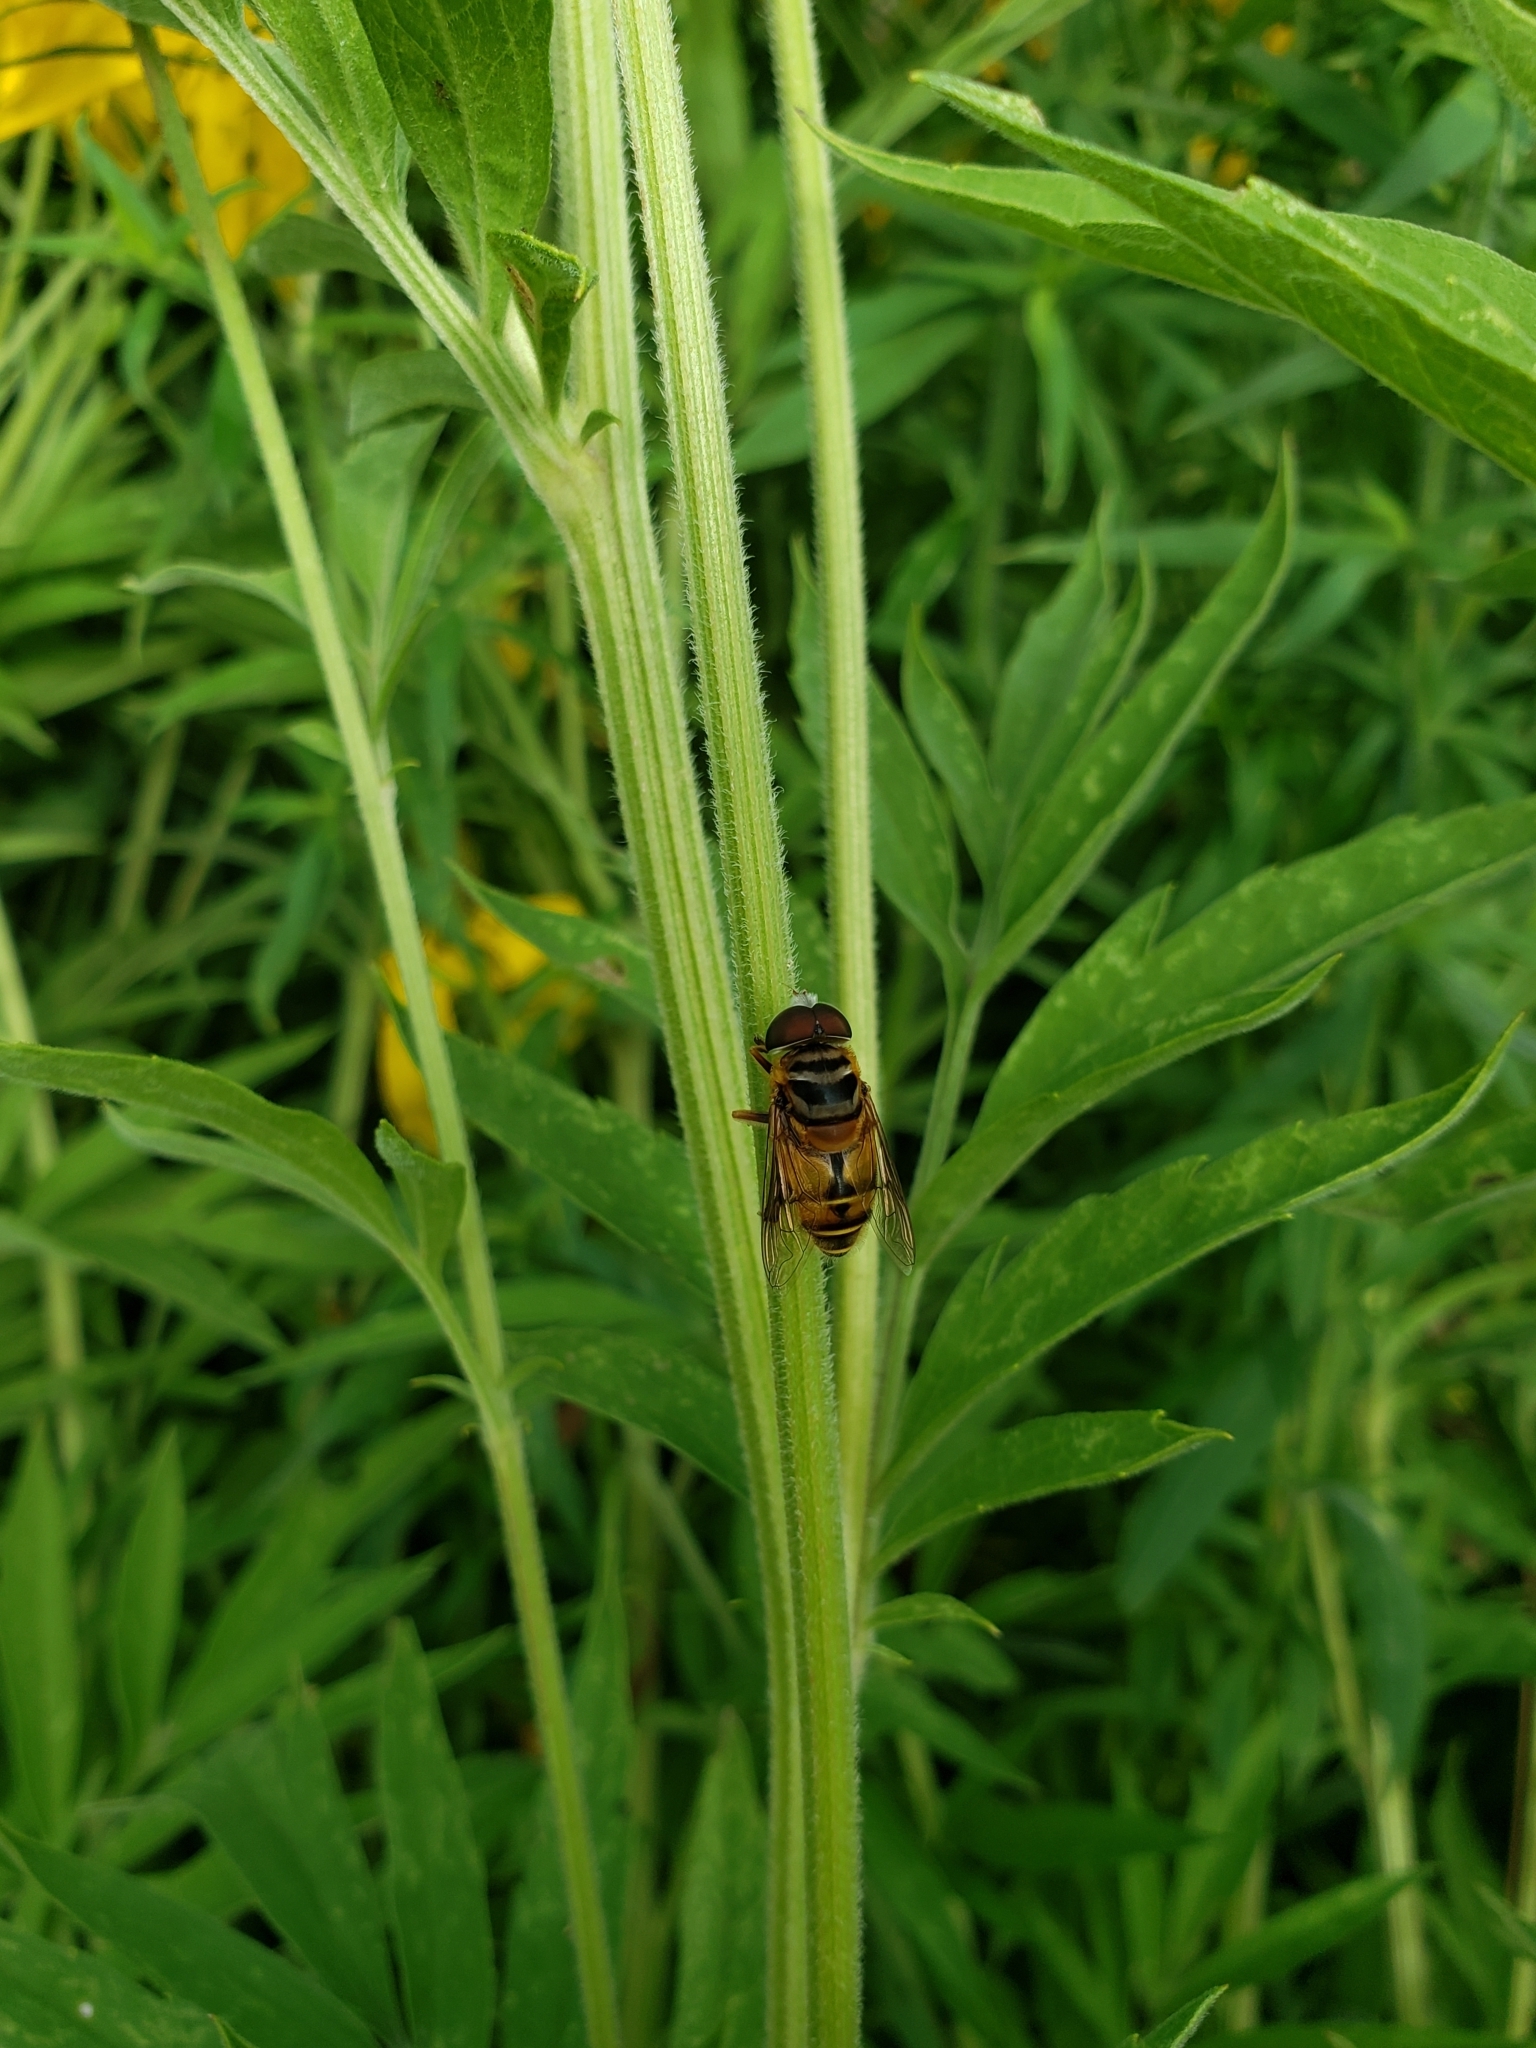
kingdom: Animalia
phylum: Arthropoda
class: Insecta
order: Diptera
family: Syrphidae
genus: Palpada
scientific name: Palpada vinetorum
